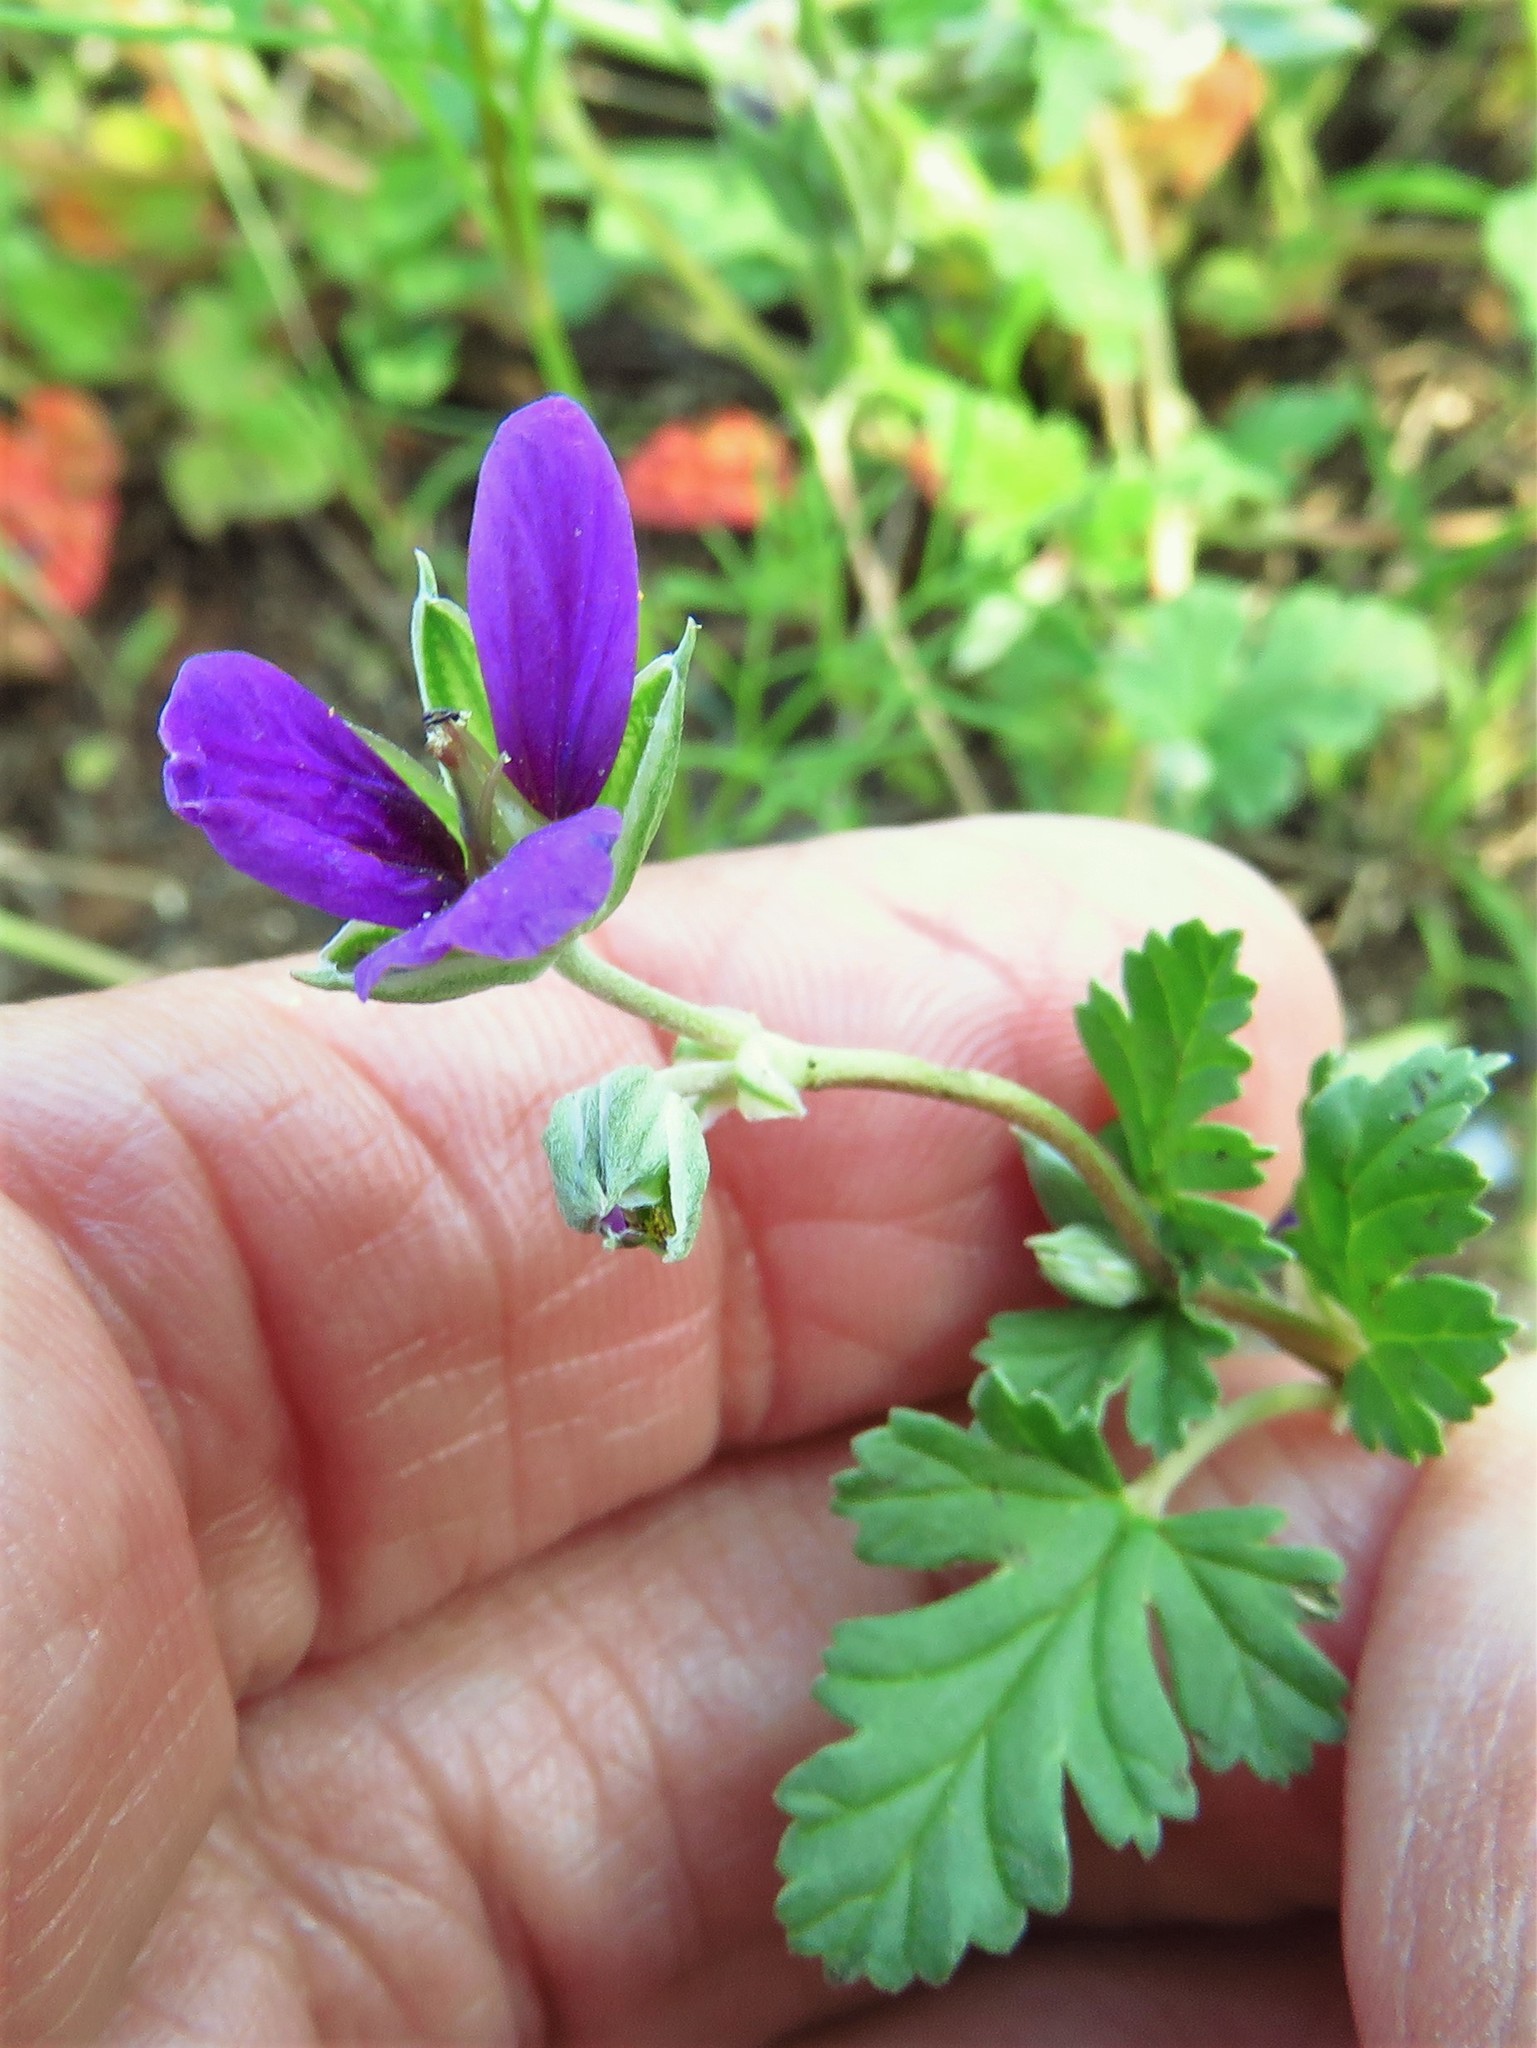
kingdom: Plantae
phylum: Tracheophyta
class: Magnoliopsida
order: Geraniales
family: Geraniaceae
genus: Erodium
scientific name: Erodium texanum
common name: Texas stork's-bill
